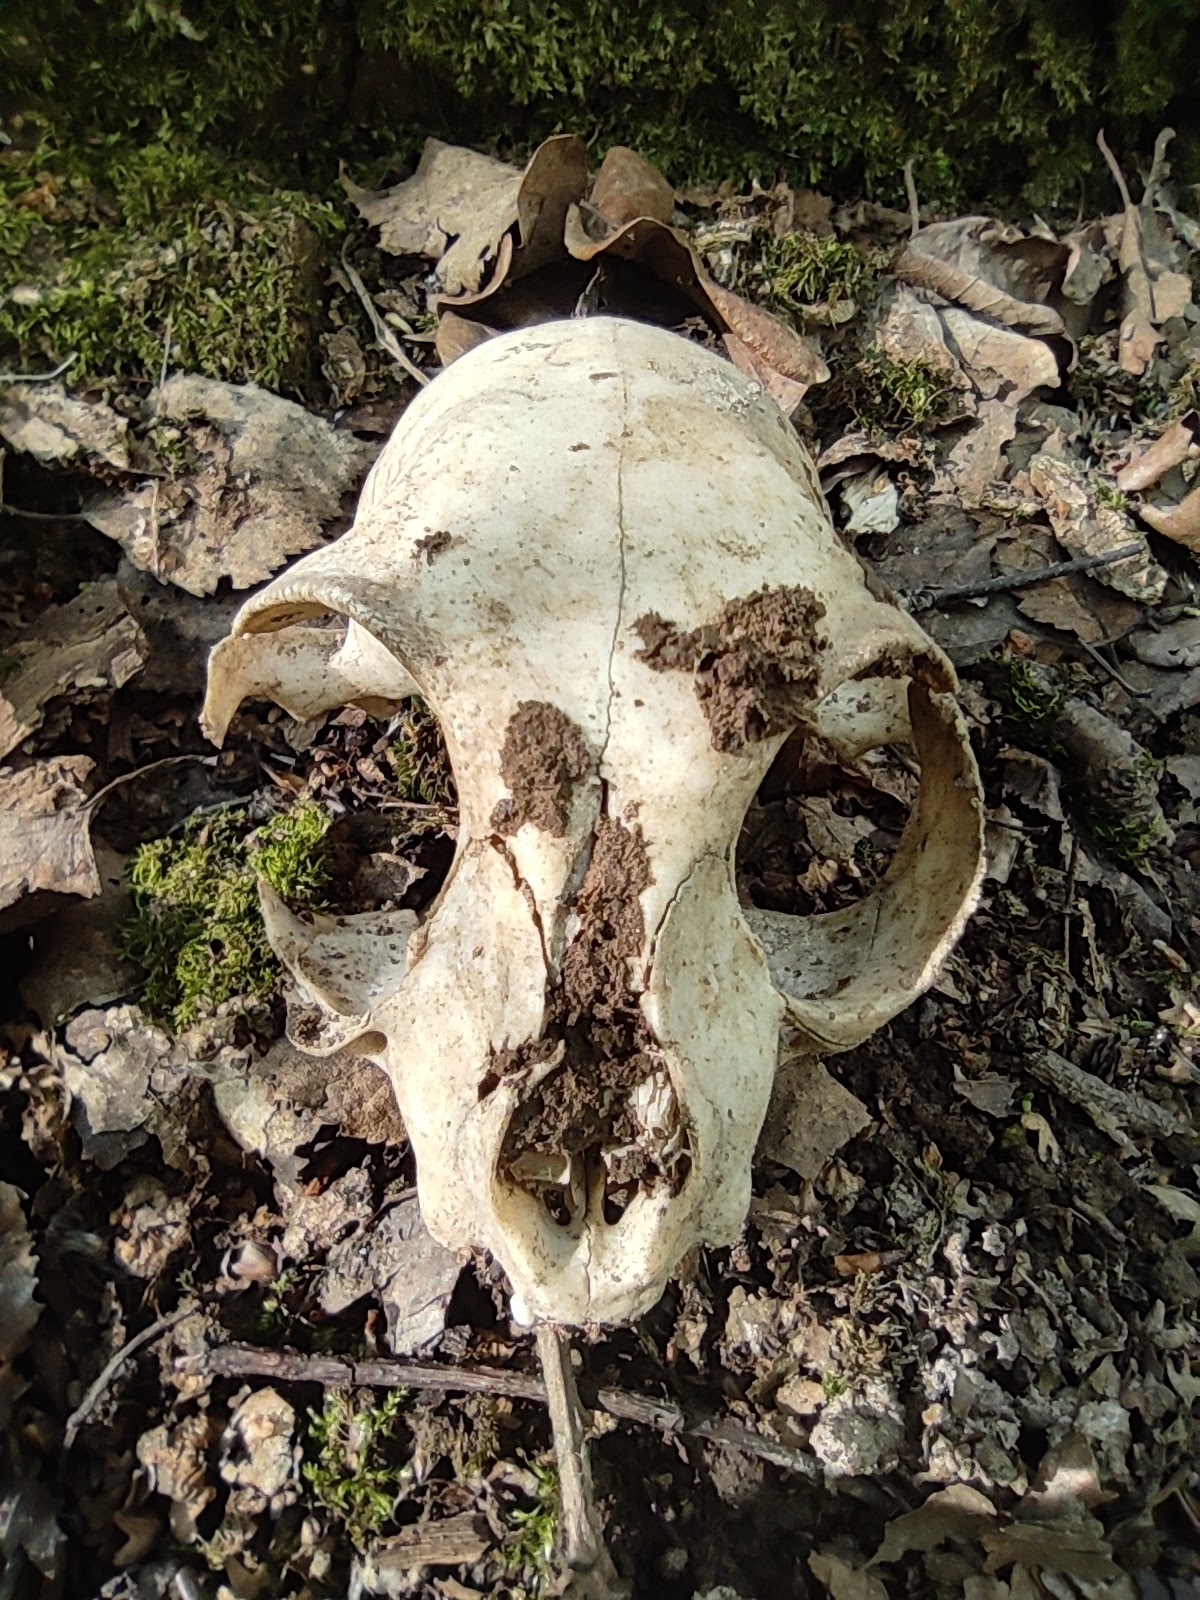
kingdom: Animalia
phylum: Chordata
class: Mammalia
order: Carnivora
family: Felidae
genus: Felis
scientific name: Felis catus
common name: Domestic cat
